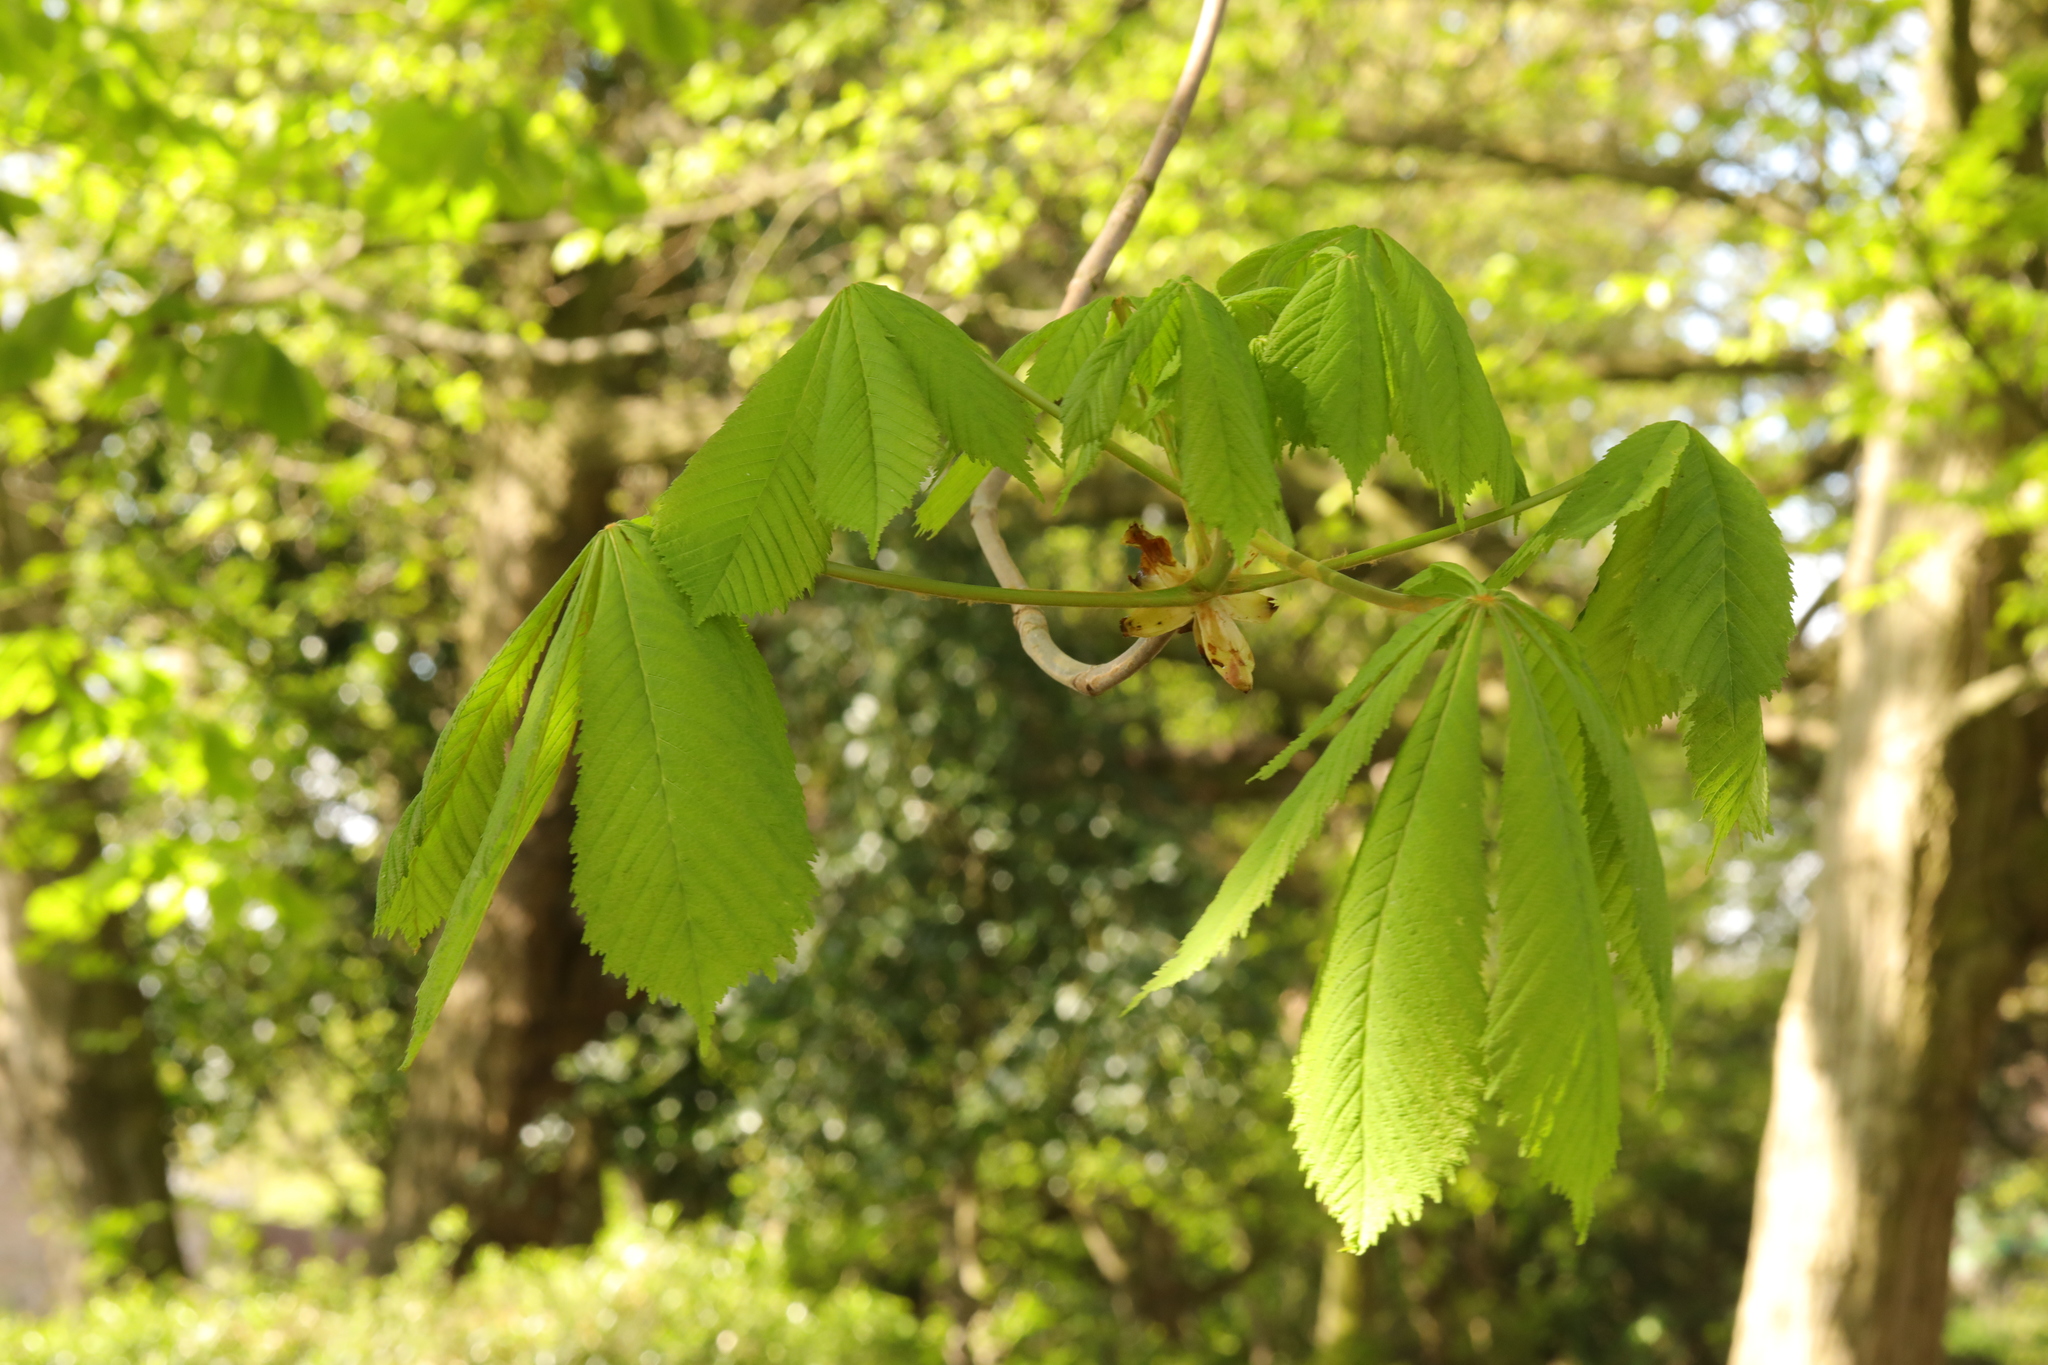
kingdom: Plantae
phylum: Tracheophyta
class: Magnoliopsida
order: Sapindales
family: Sapindaceae
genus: Aesculus
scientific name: Aesculus hippocastanum
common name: Horse-chestnut
